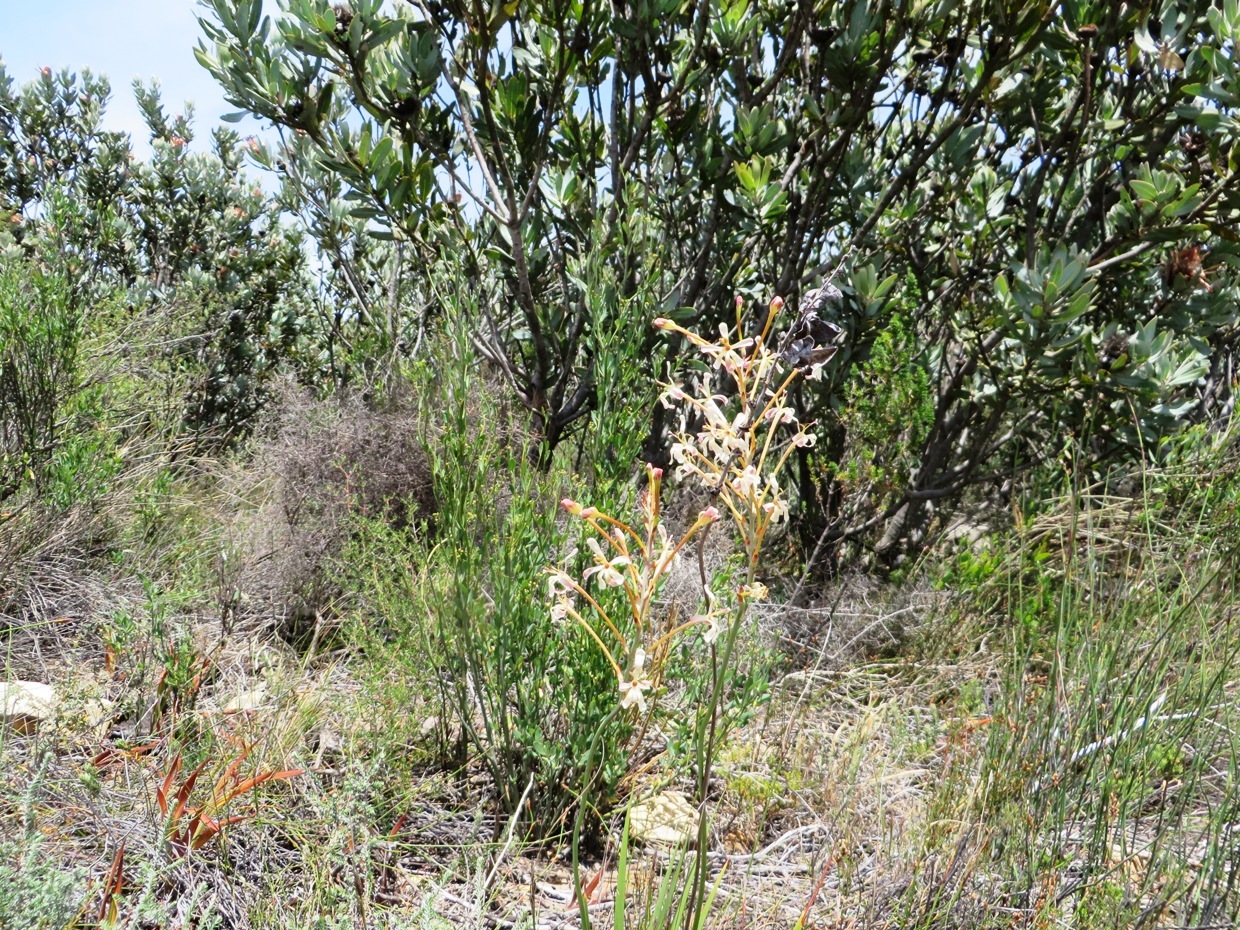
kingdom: Plantae
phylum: Tracheophyta
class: Liliopsida
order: Asparagales
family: Iridaceae
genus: Tritoniopsis
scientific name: Tritoniopsis nervosa
